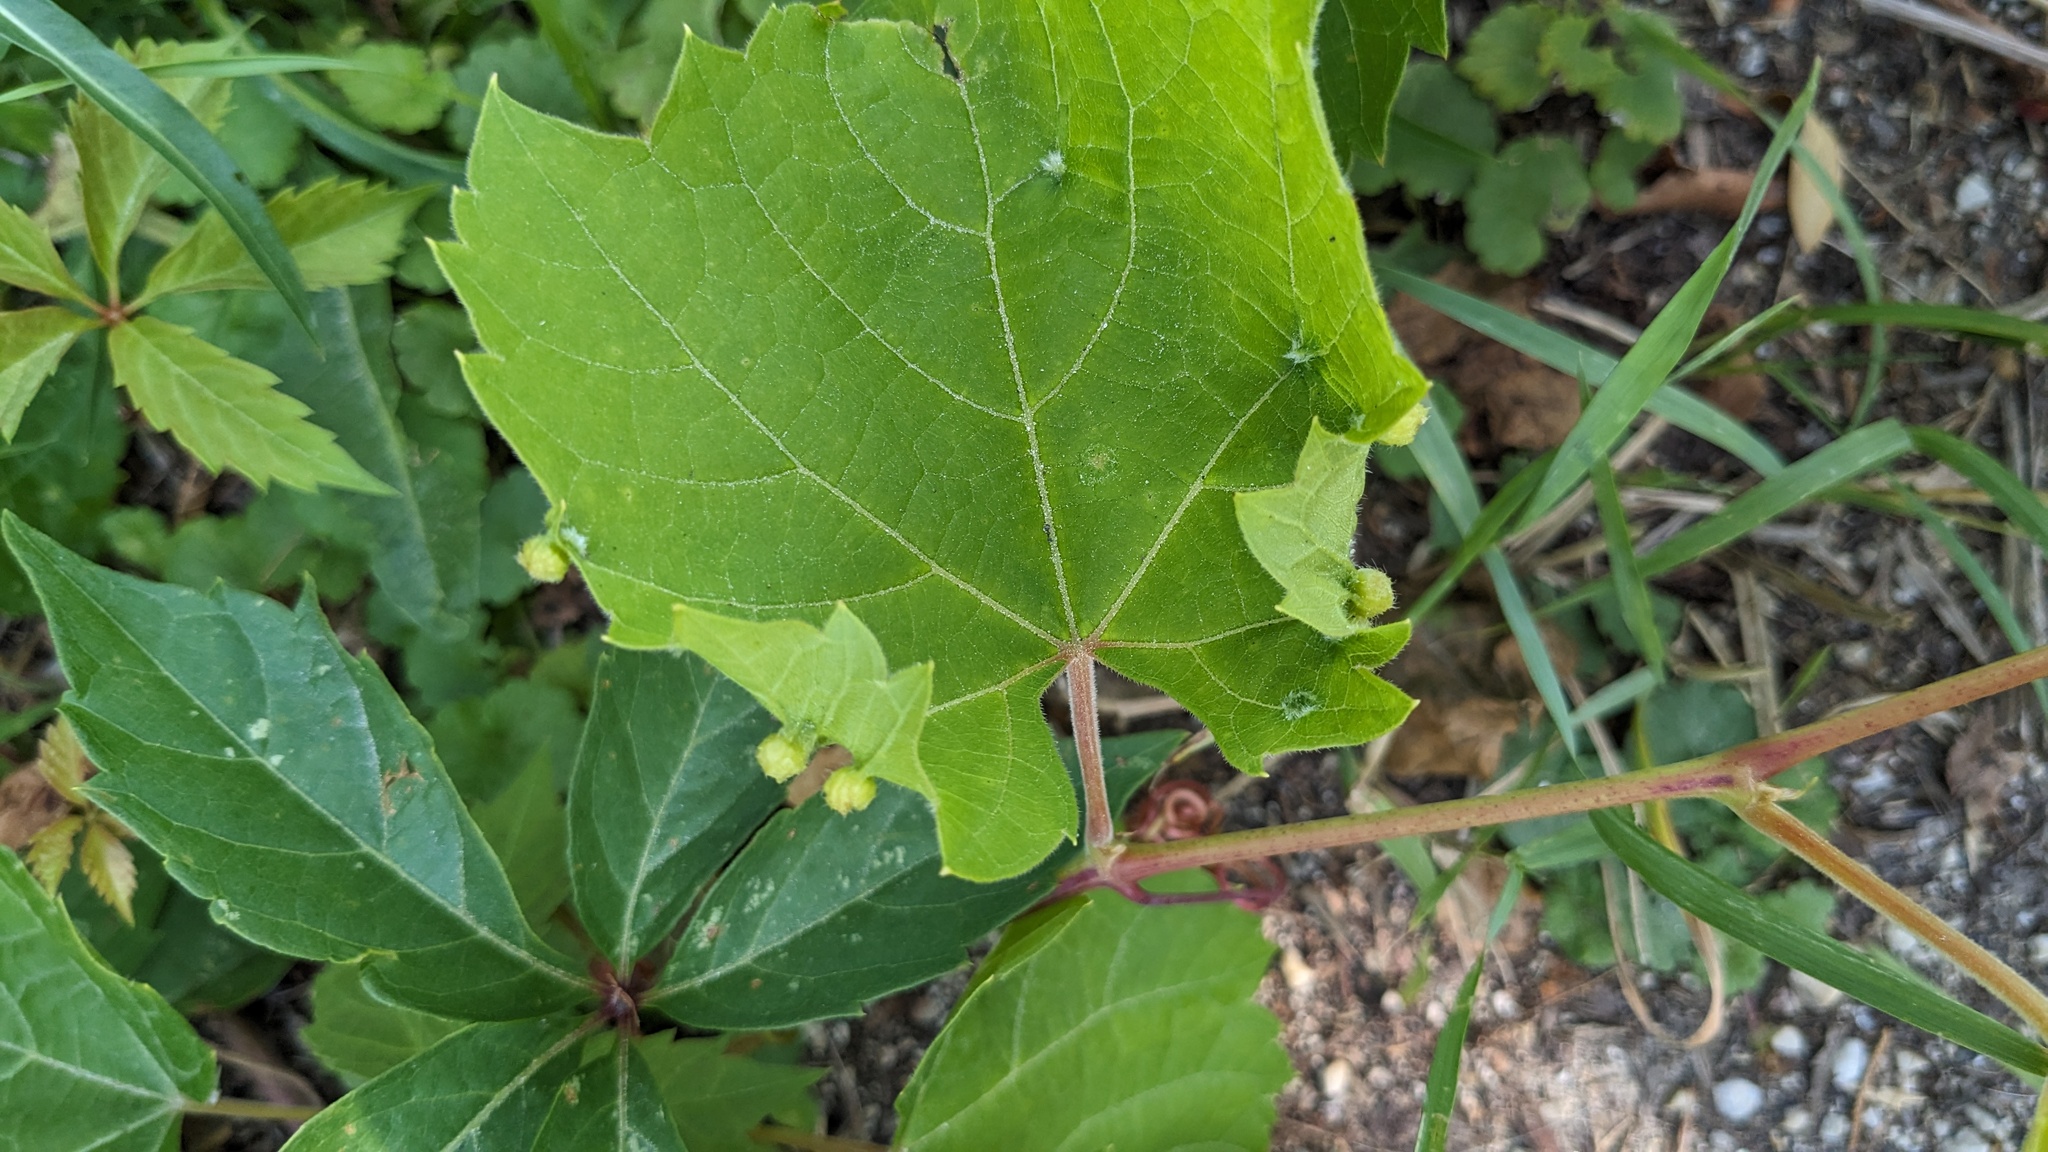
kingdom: Animalia
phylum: Arthropoda
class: Insecta
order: Hemiptera
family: Phylloxeridae
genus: Daktulosphaira
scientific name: Daktulosphaira vitifoliae
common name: Grape phylloxera
